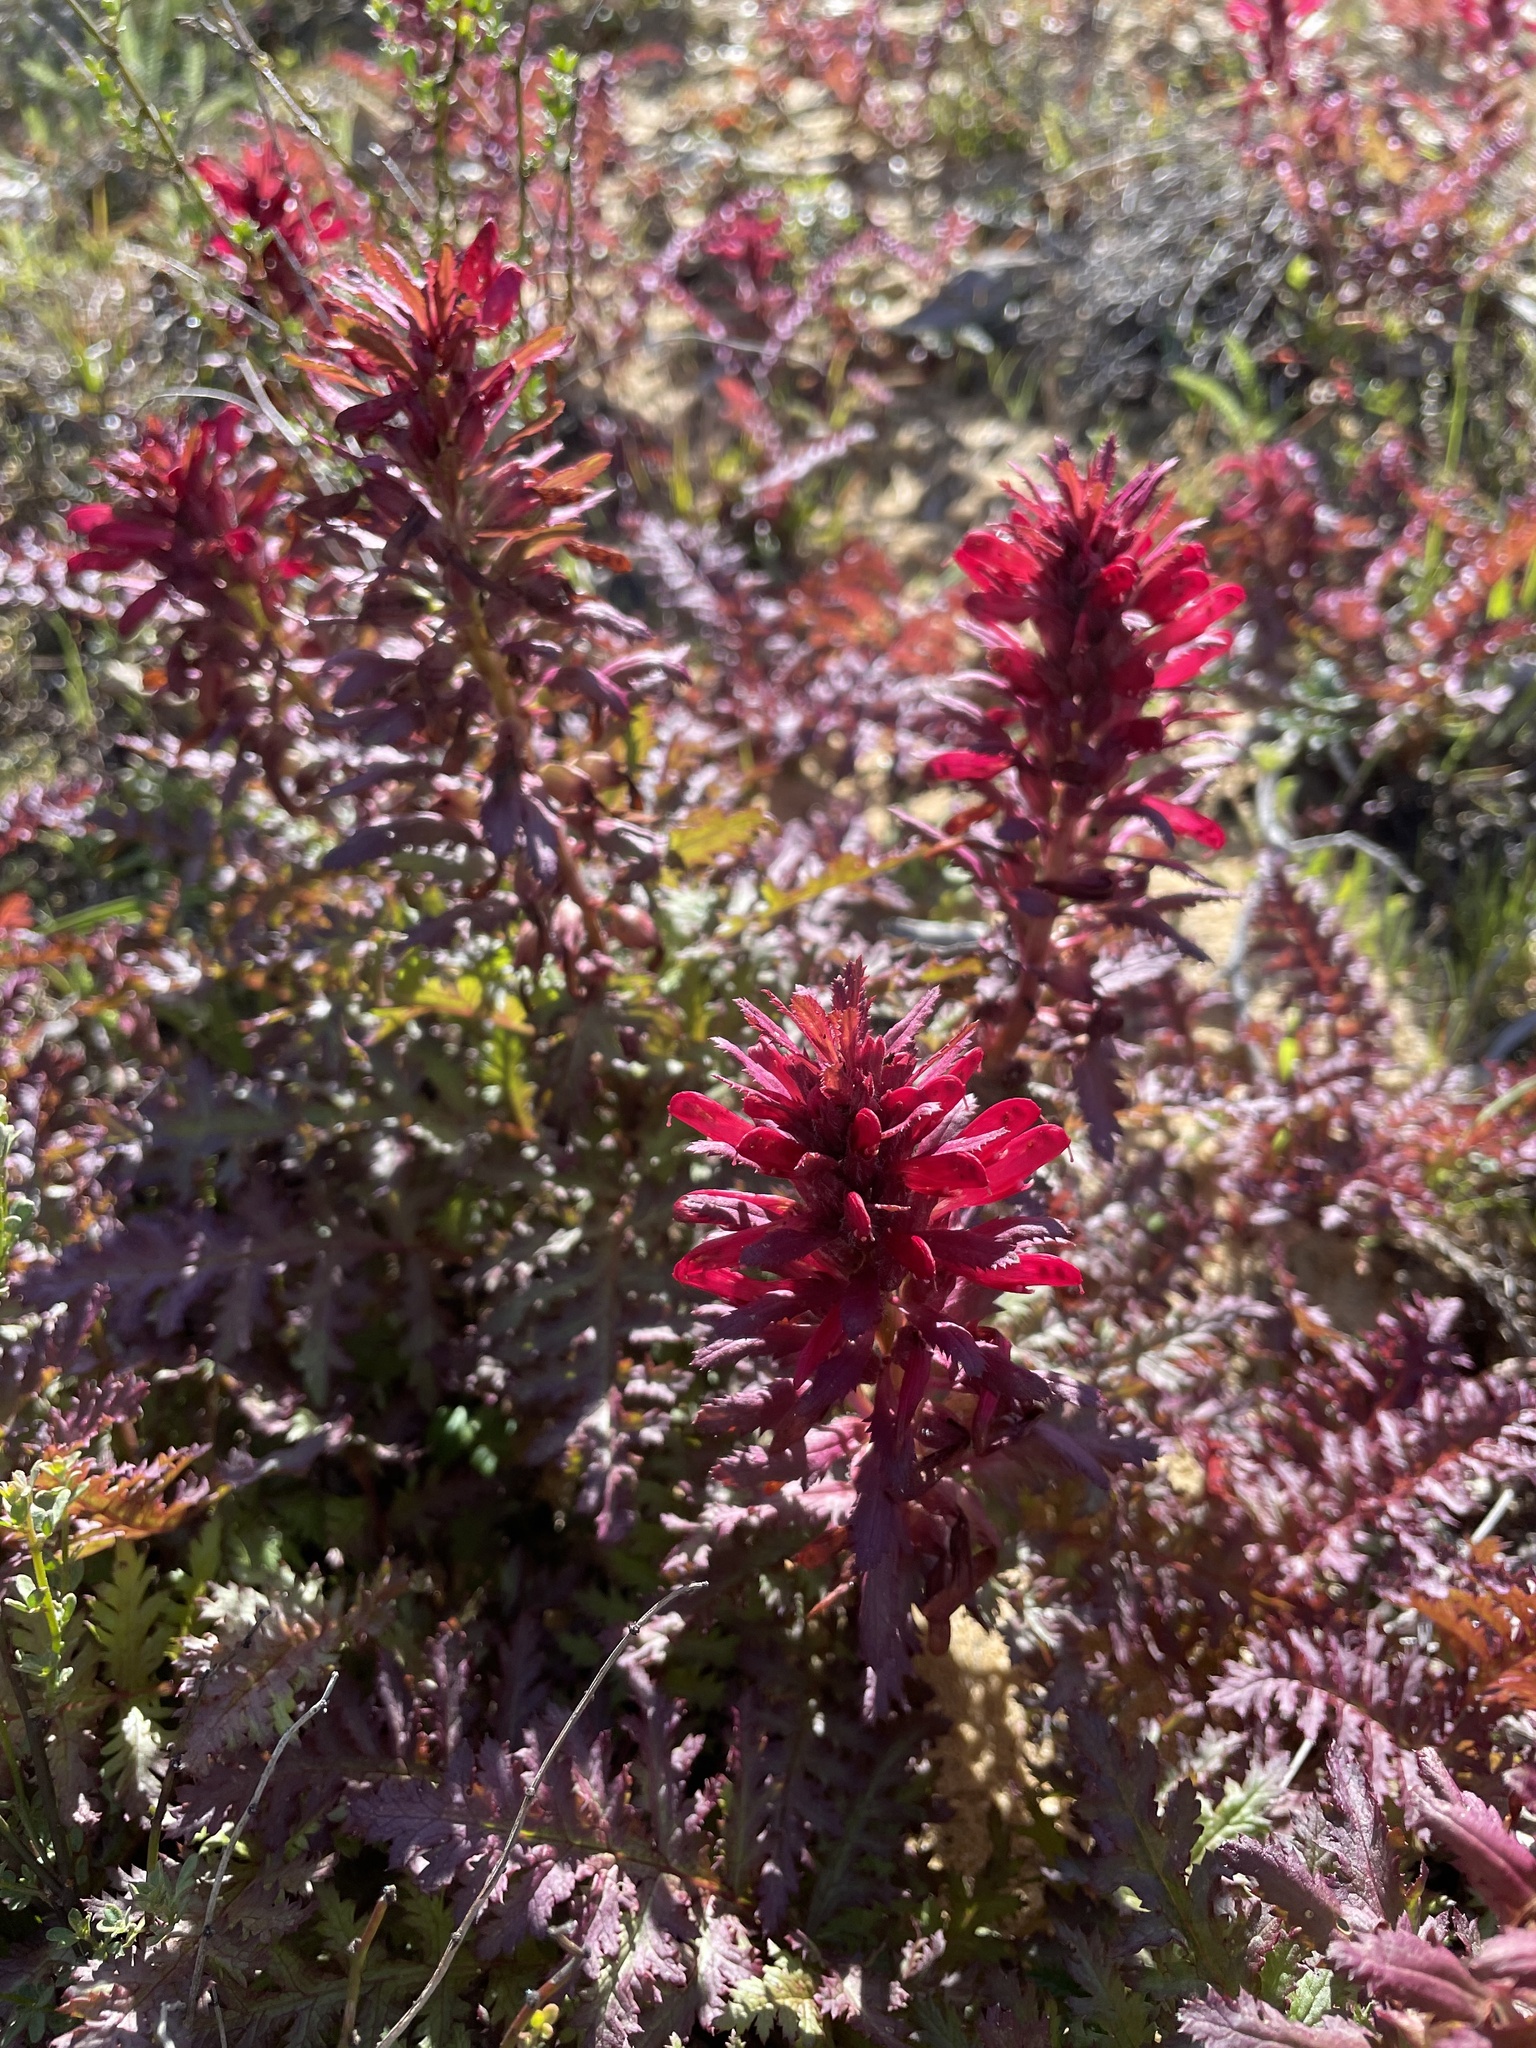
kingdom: Plantae
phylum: Tracheophyta
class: Magnoliopsida
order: Lamiales
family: Orobanchaceae
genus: Pedicularis
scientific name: Pedicularis densiflora
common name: Indian warrior
